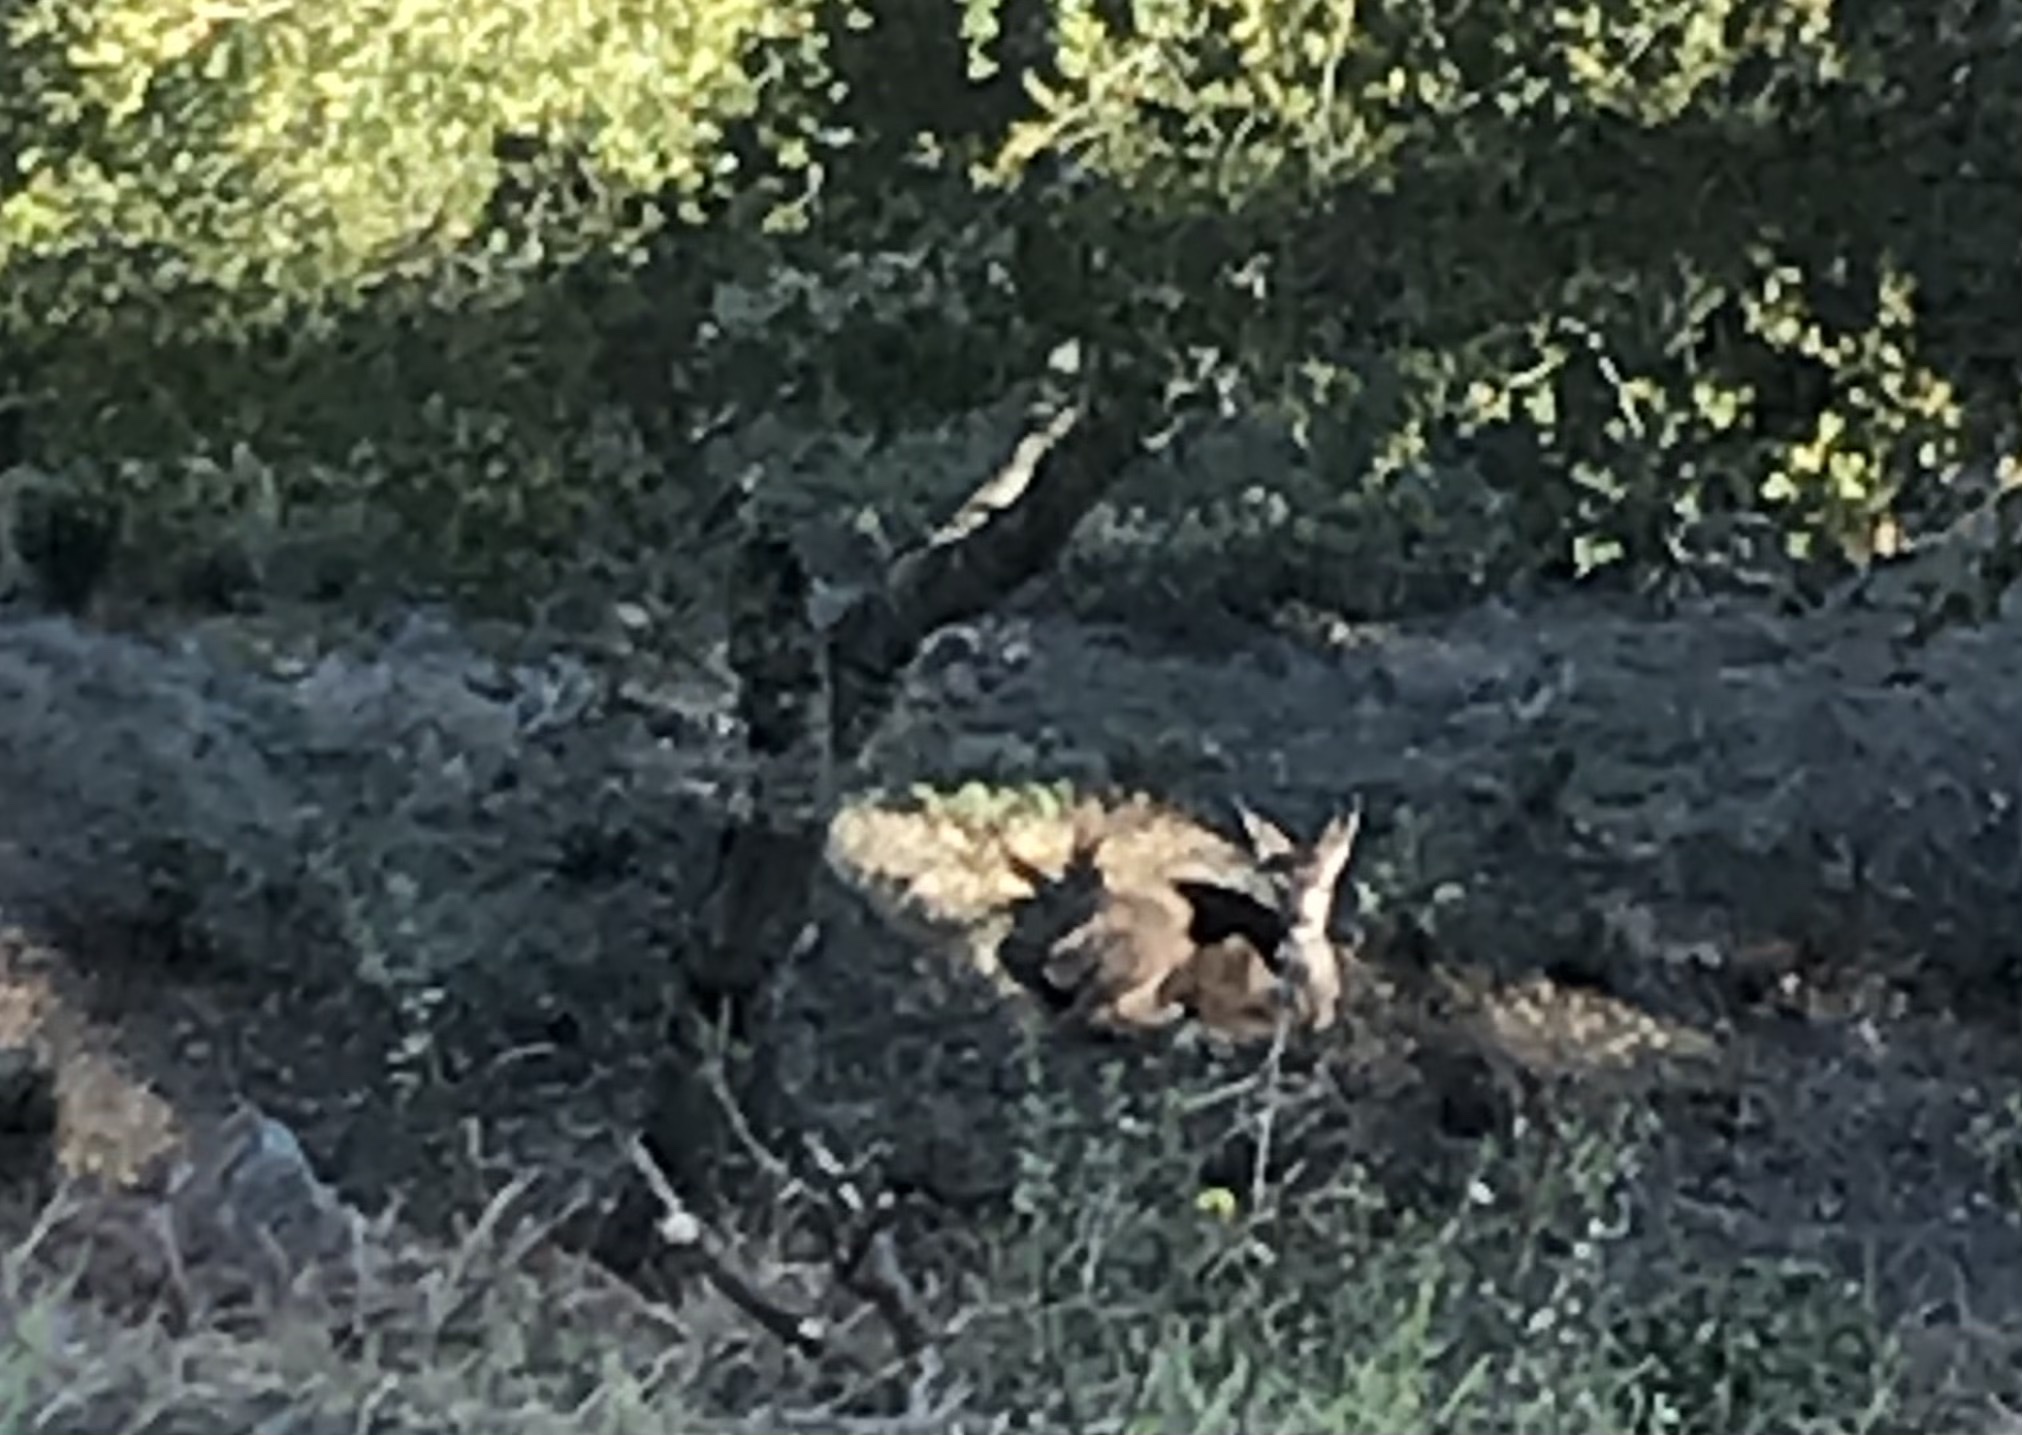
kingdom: Animalia
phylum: Chordata
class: Mammalia
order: Artiodactyla
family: Cervidae
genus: Odocoileus
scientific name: Odocoileus hemionus
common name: Mule deer
